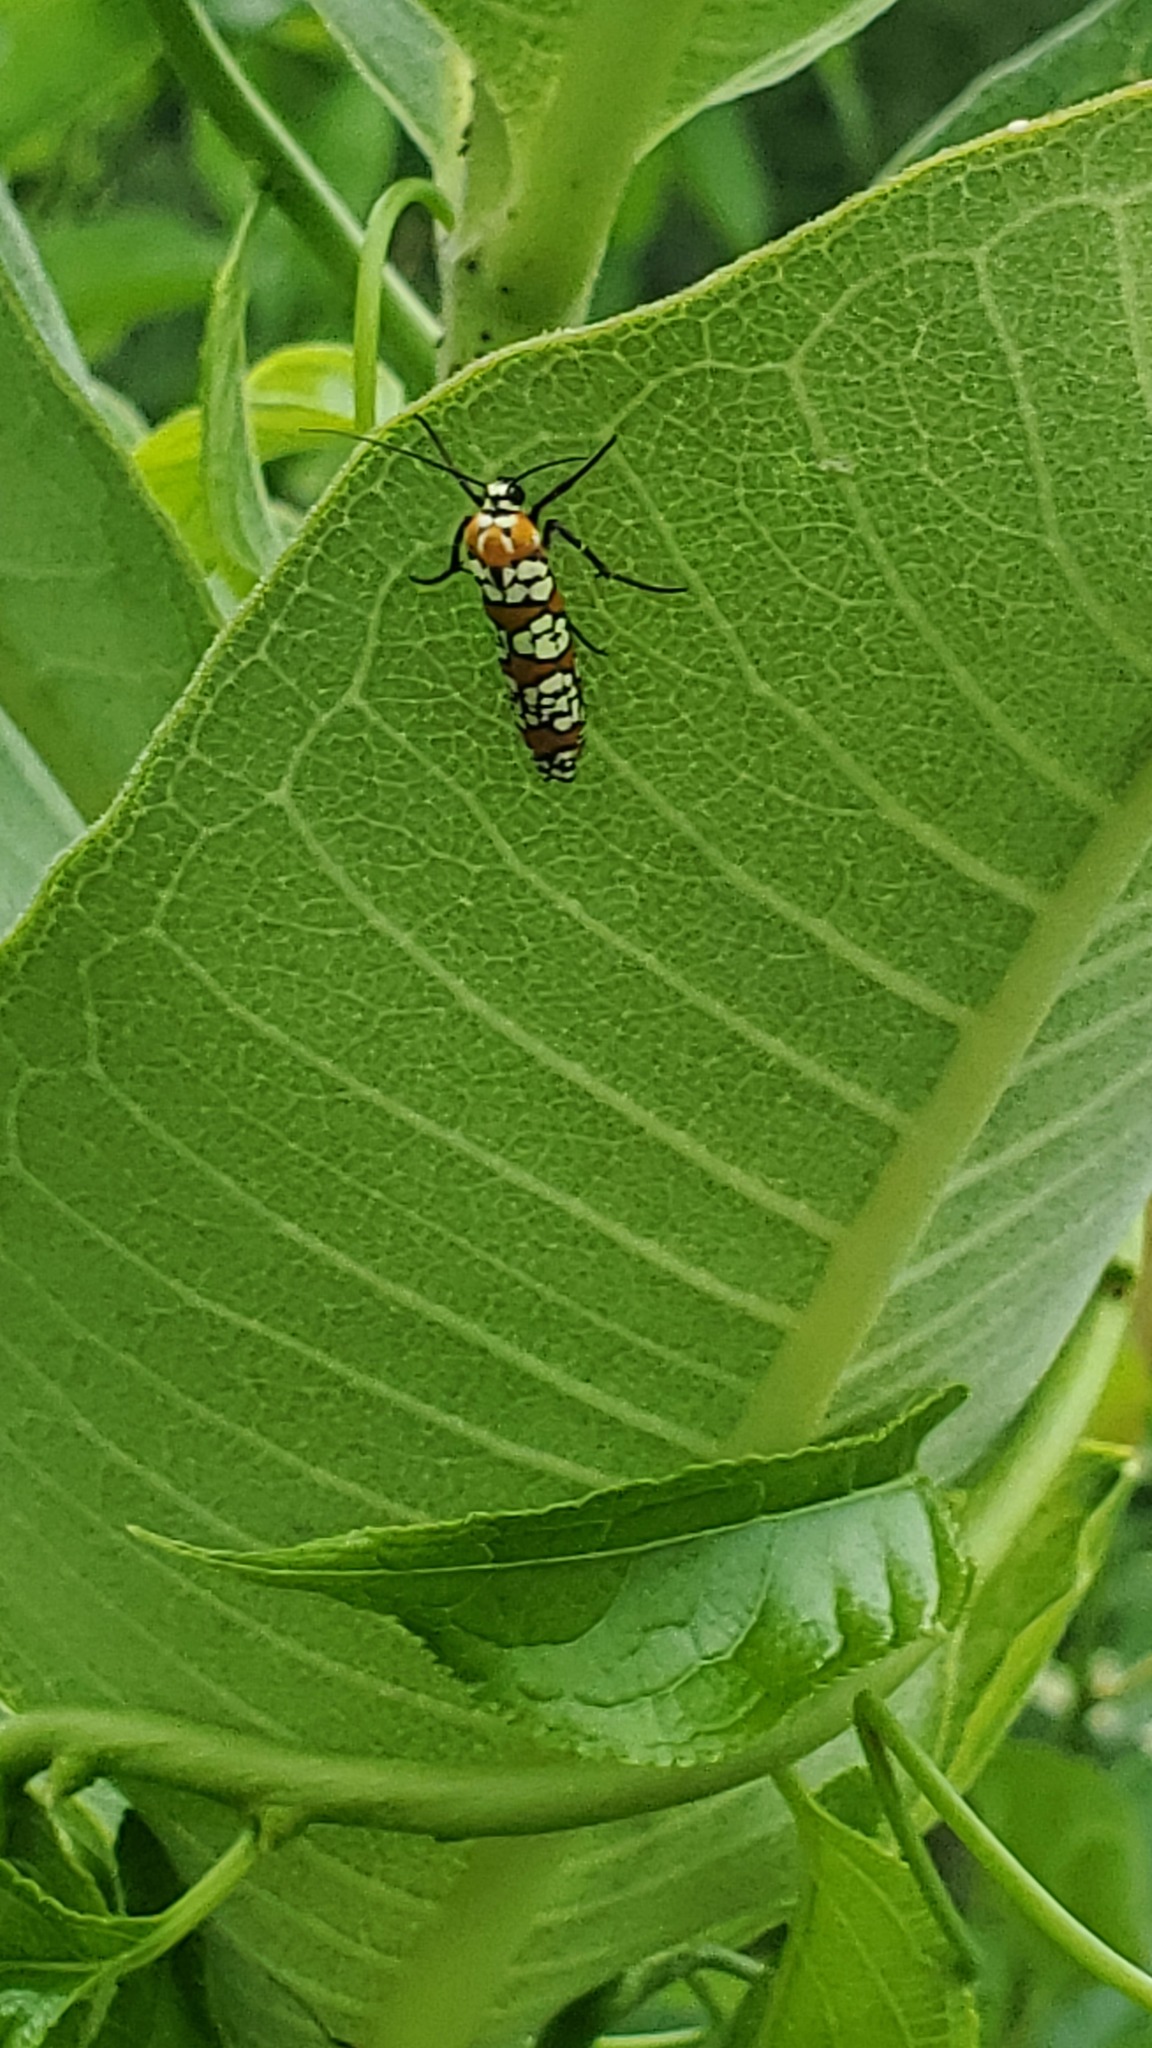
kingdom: Animalia
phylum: Arthropoda
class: Insecta
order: Lepidoptera
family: Attevidae
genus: Atteva
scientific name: Atteva punctella
